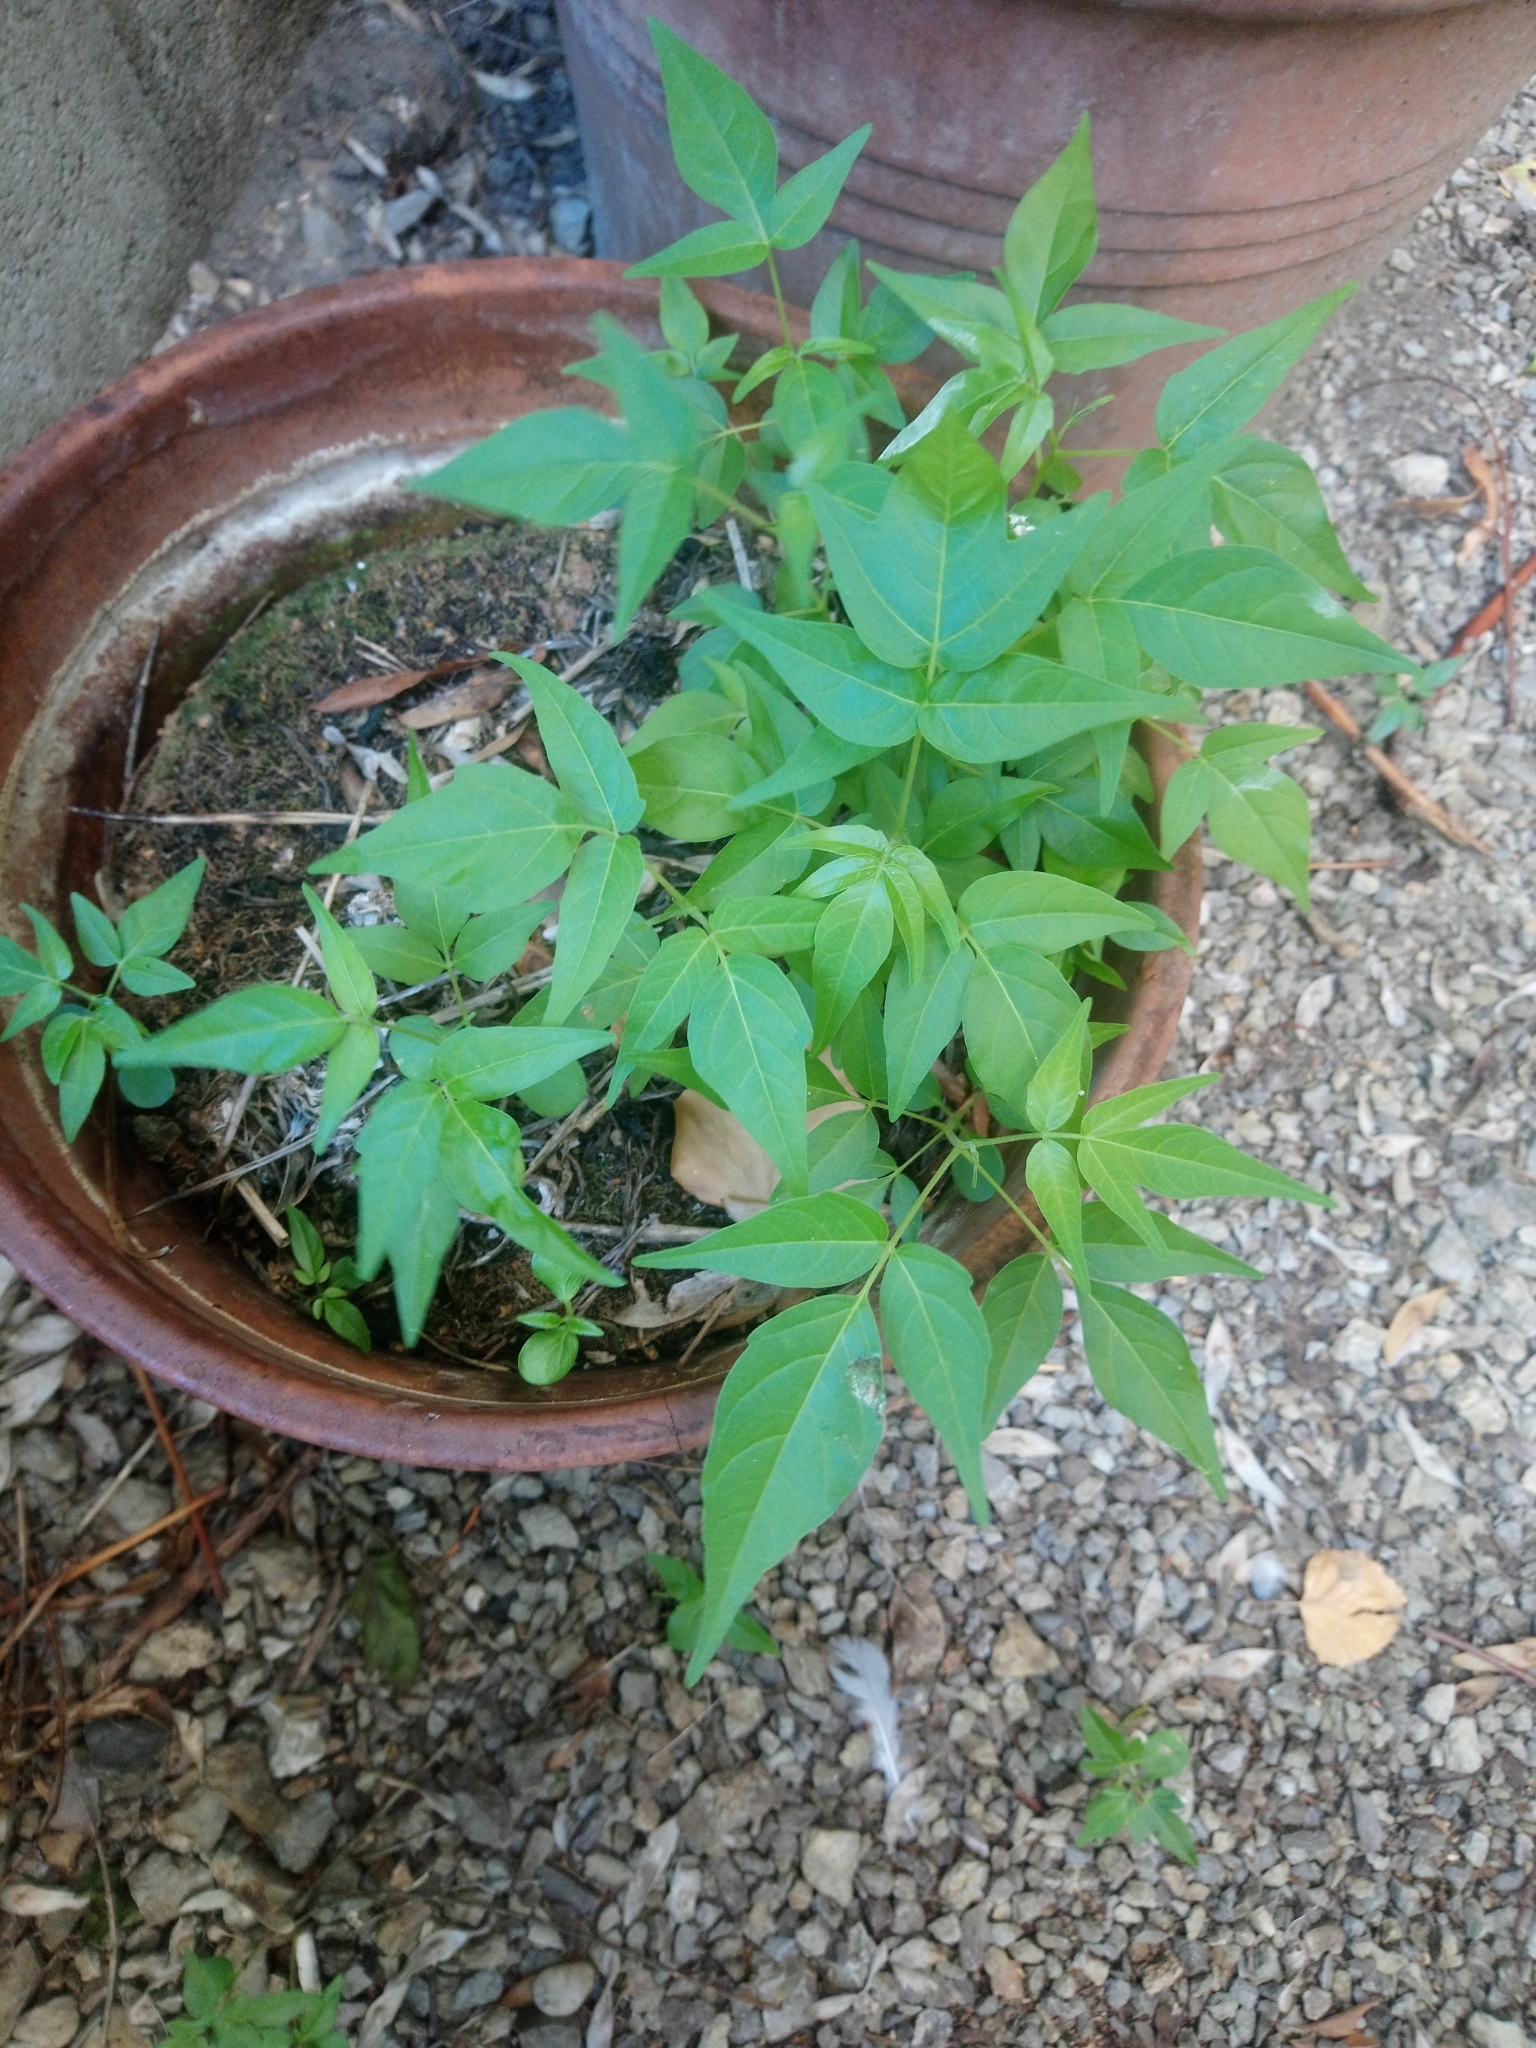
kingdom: Plantae
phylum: Tracheophyta
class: Magnoliopsida
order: Sapindales
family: Simaroubaceae
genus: Ailanthus
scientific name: Ailanthus altissima
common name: Tree-of-heaven
